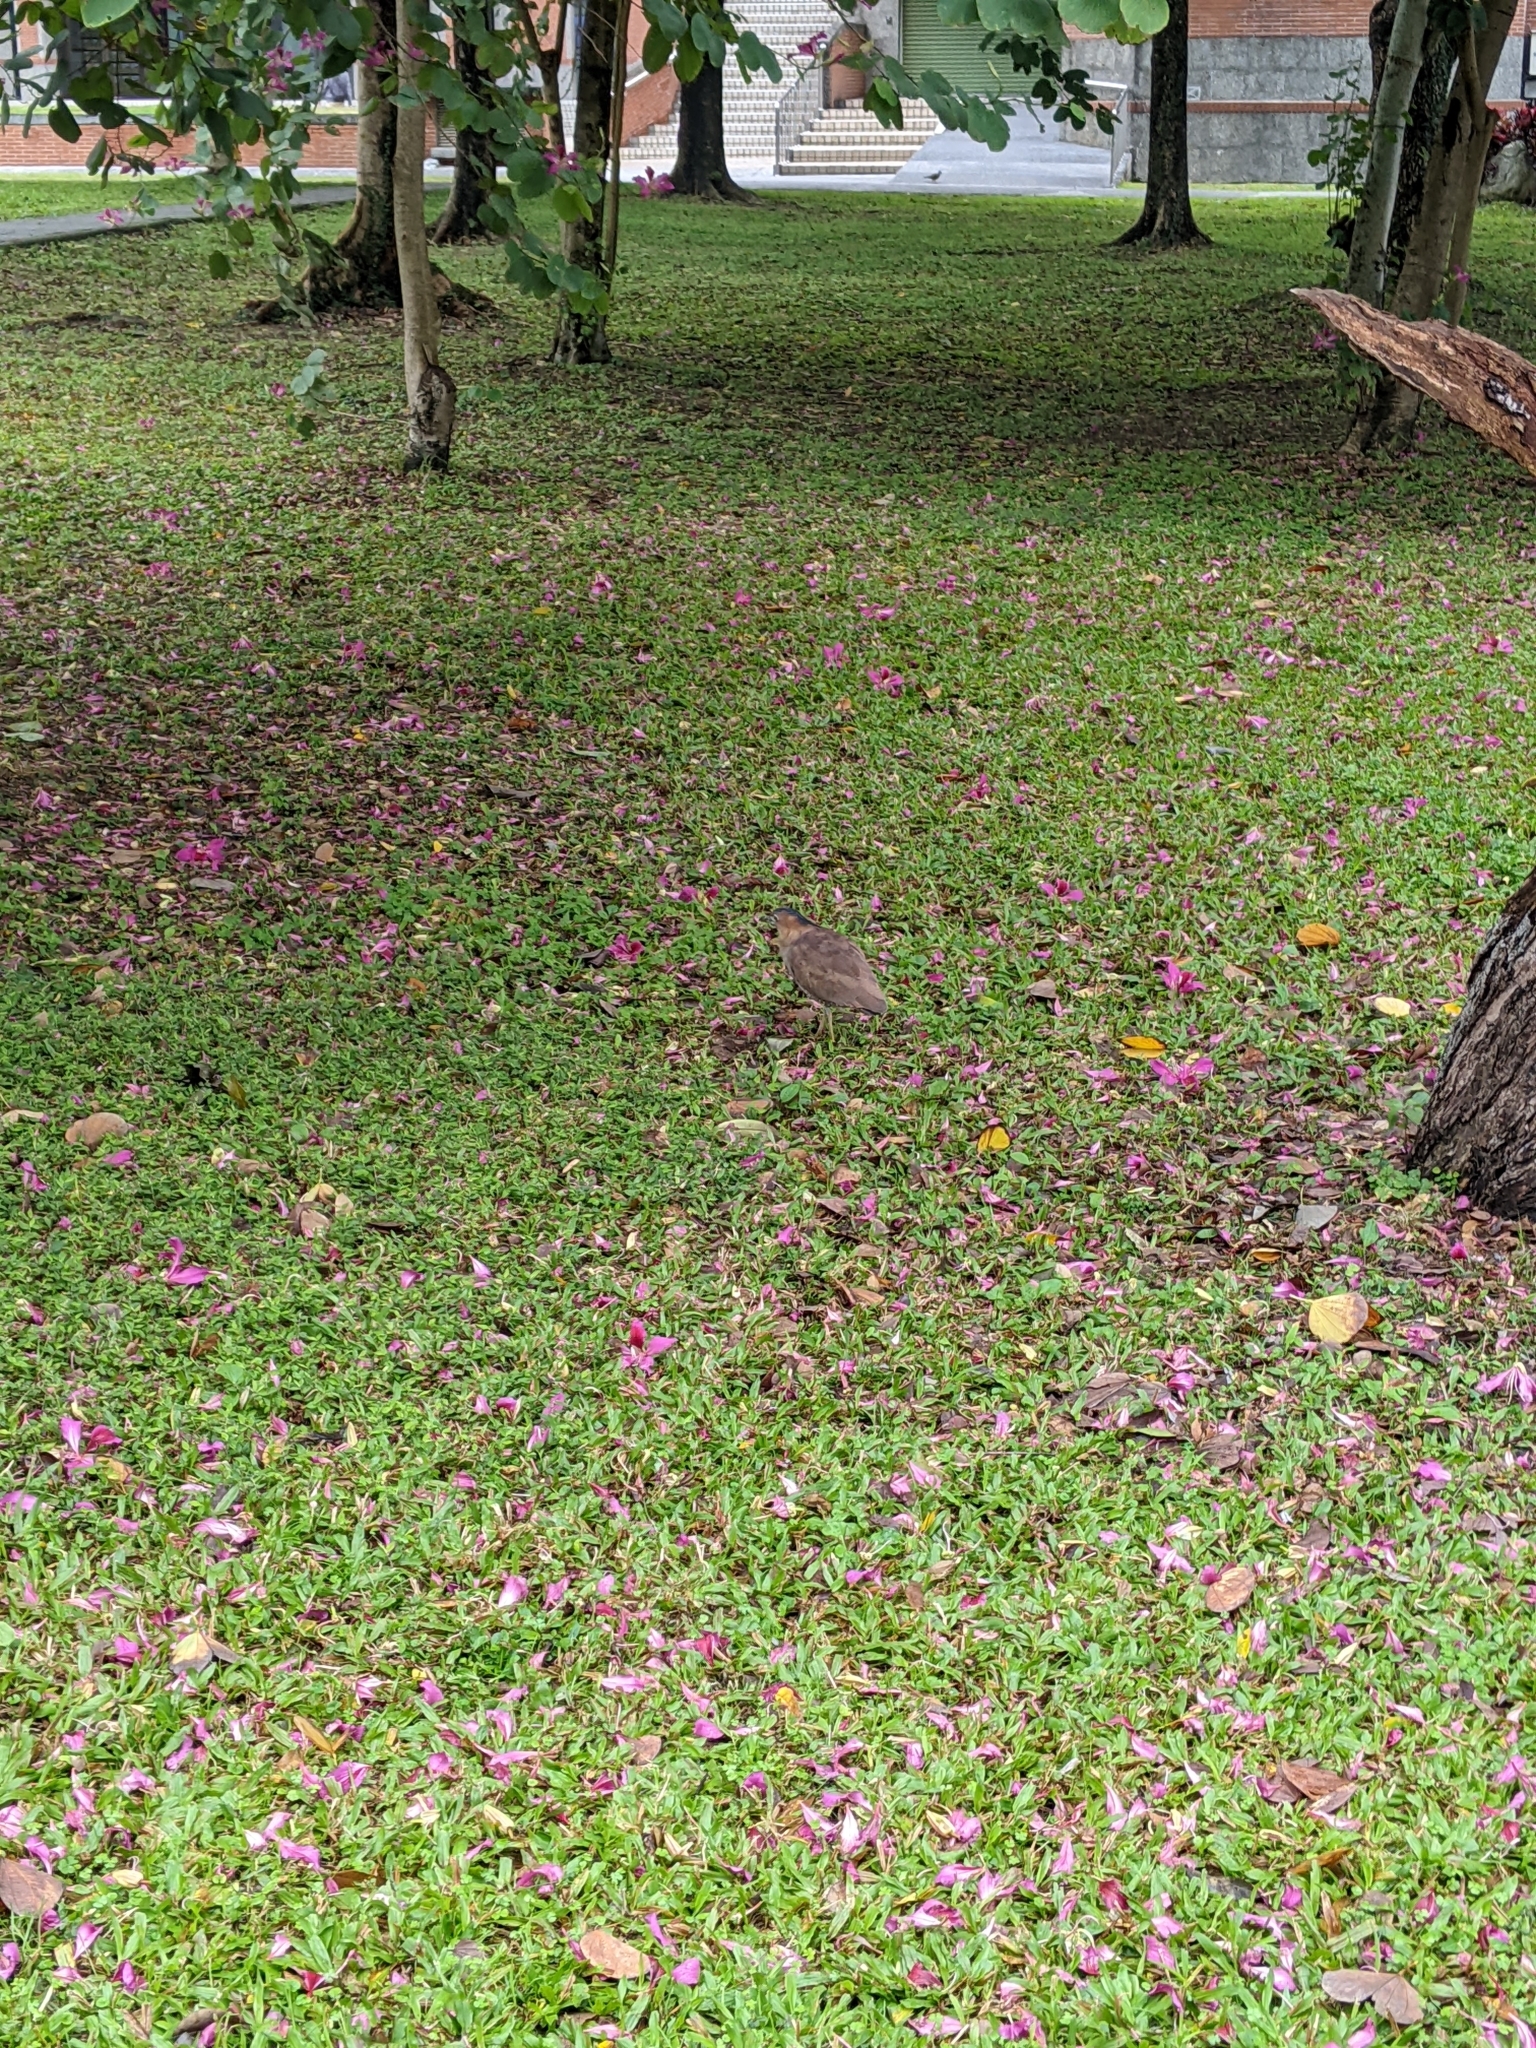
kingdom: Animalia
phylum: Chordata
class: Aves
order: Pelecaniformes
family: Ardeidae
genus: Gorsachius
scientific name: Gorsachius melanolophus
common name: Malayan night heron
